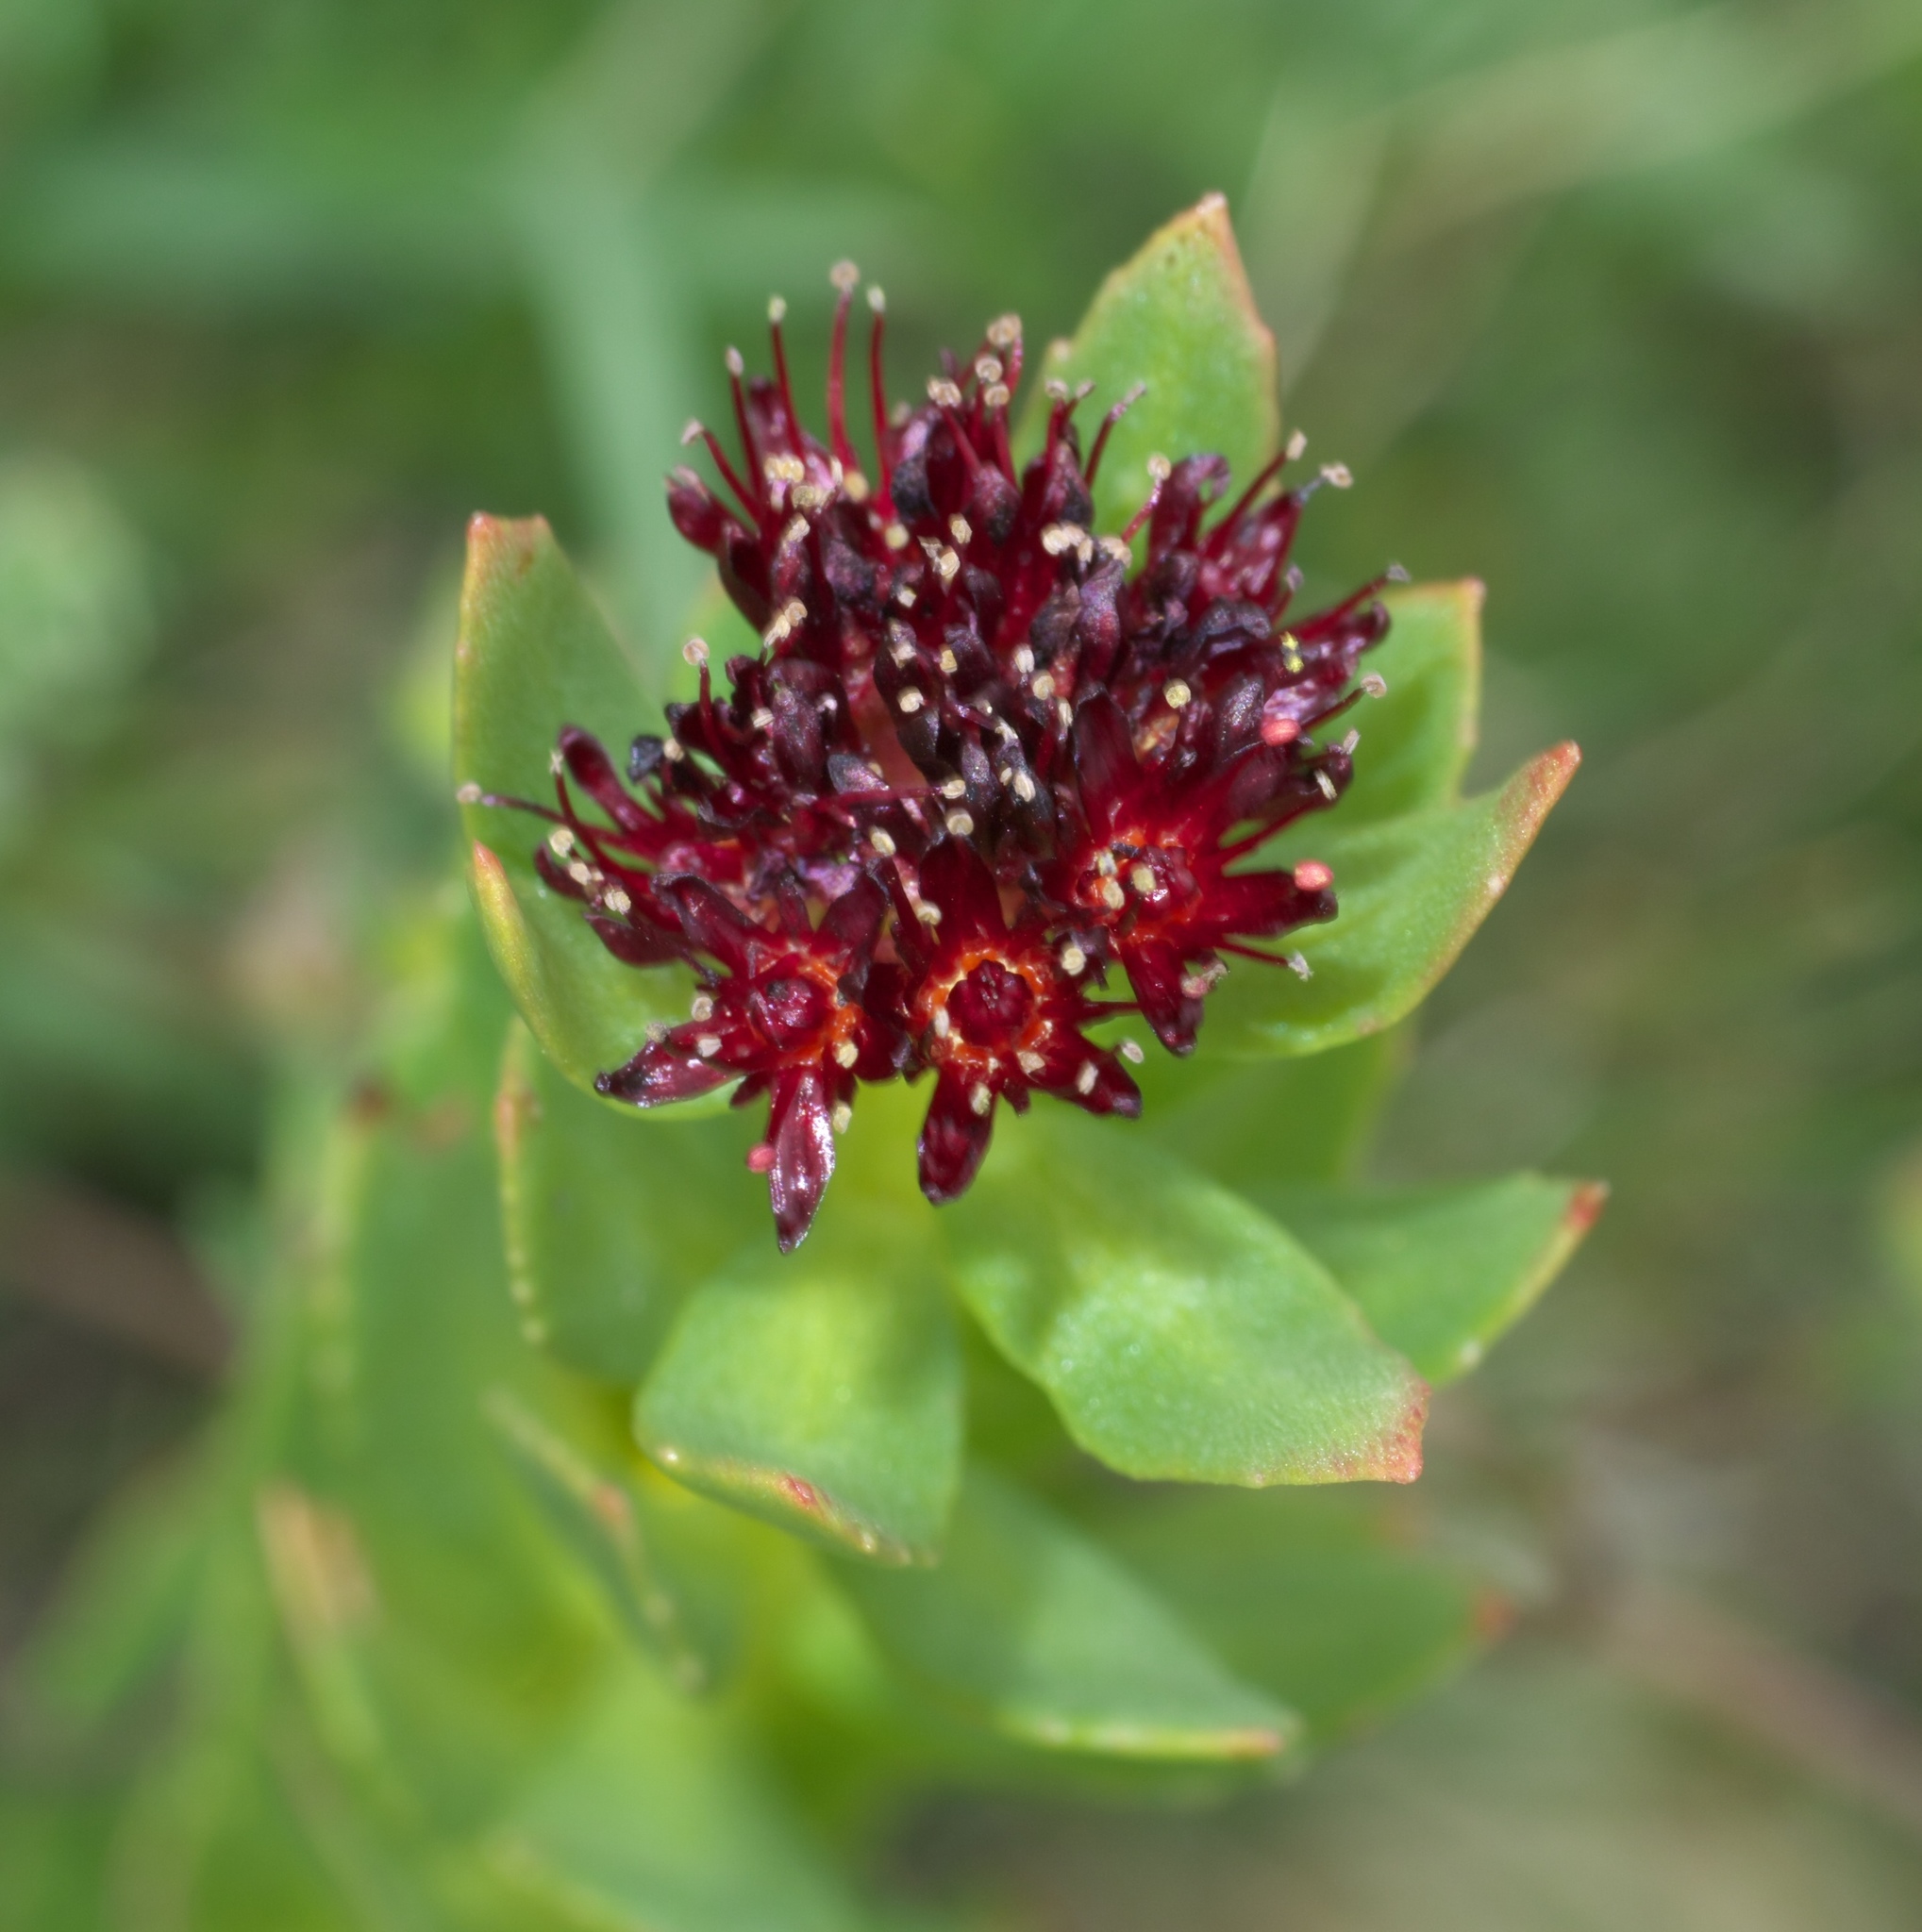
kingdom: Plantae
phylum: Tracheophyta
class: Magnoliopsida
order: Saxifragales
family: Crassulaceae
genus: Rhodiola
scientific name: Rhodiola integrifolia
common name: Western roseroot
